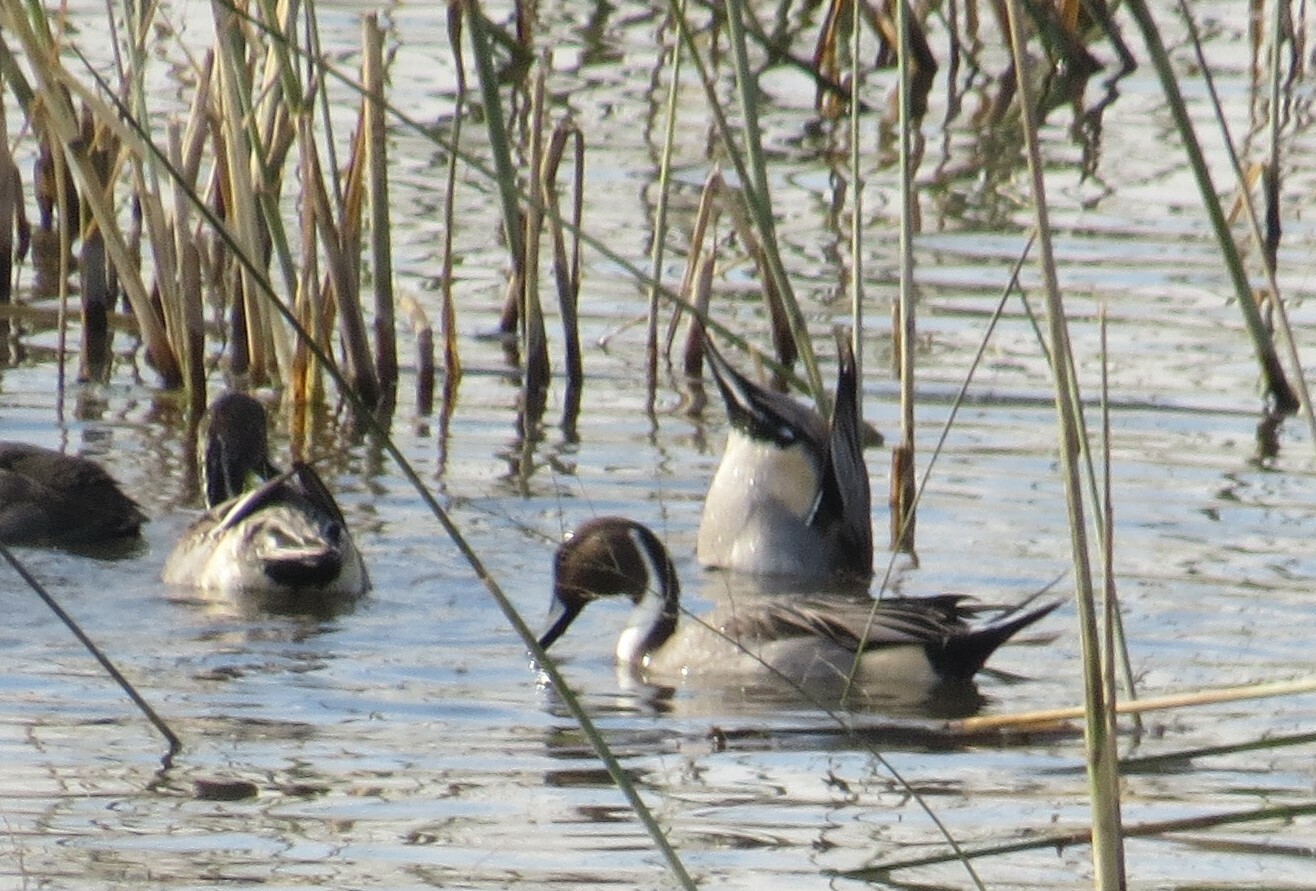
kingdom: Animalia
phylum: Chordata
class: Aves
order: Anseriformes
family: Anatidae
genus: Anas
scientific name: Anas acuta
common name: Northern pintail
